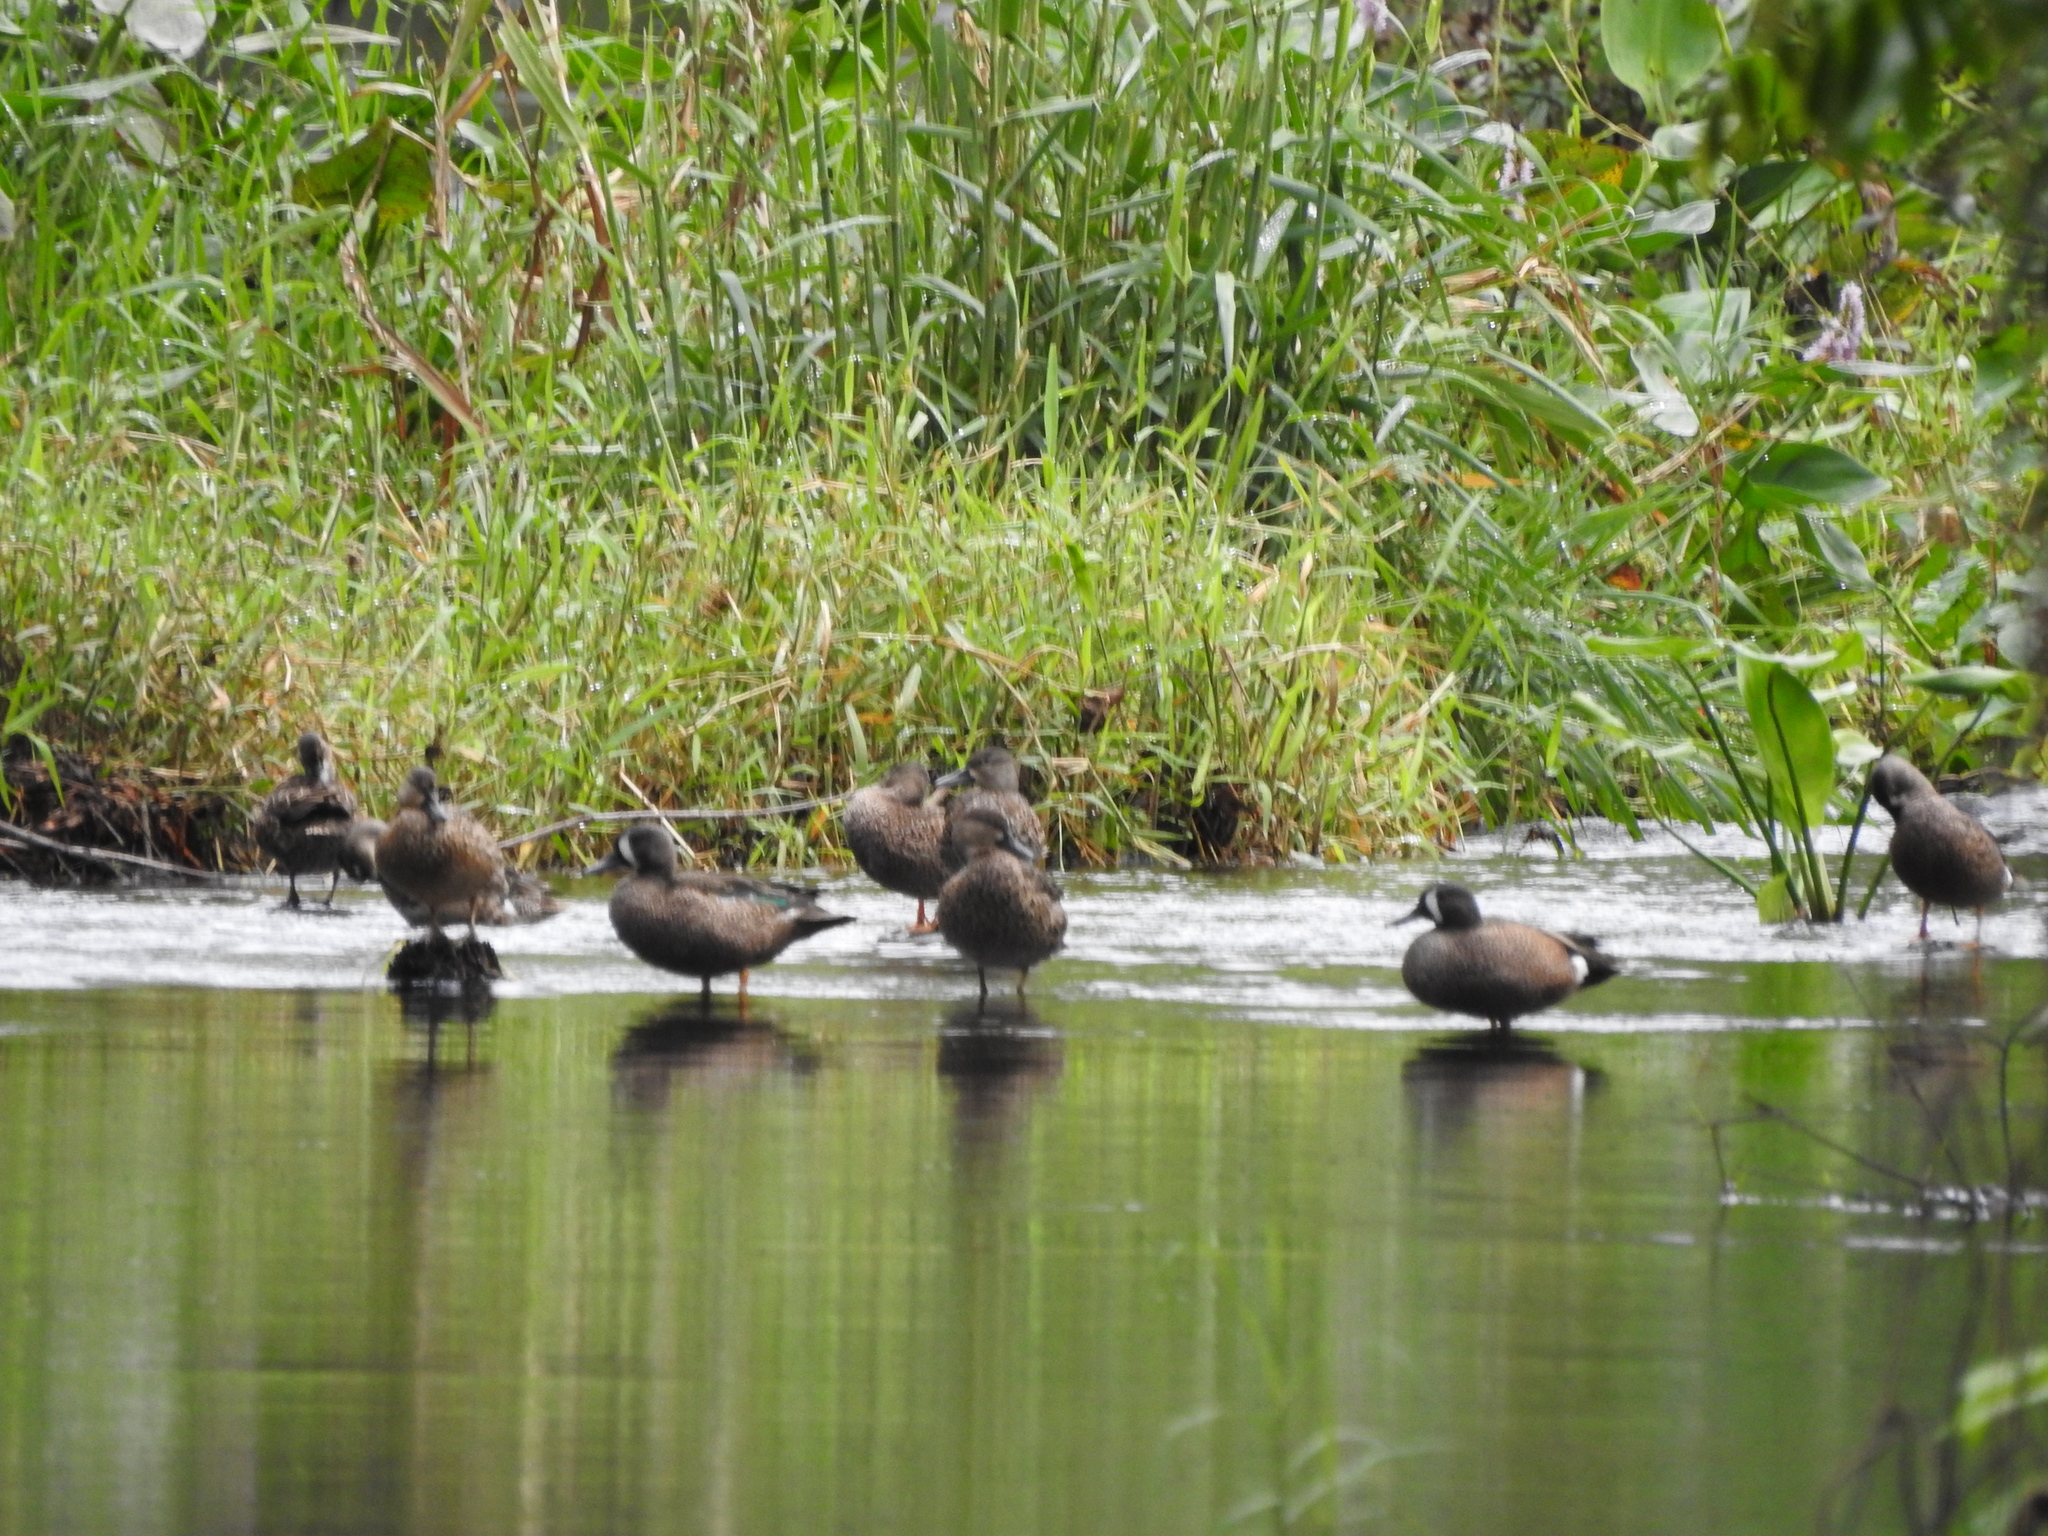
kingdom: Animalia
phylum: Chordata
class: Aves
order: Anseriformes
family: Anatidae
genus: Spatula
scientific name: Spatula discors
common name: Blue-winged teal
